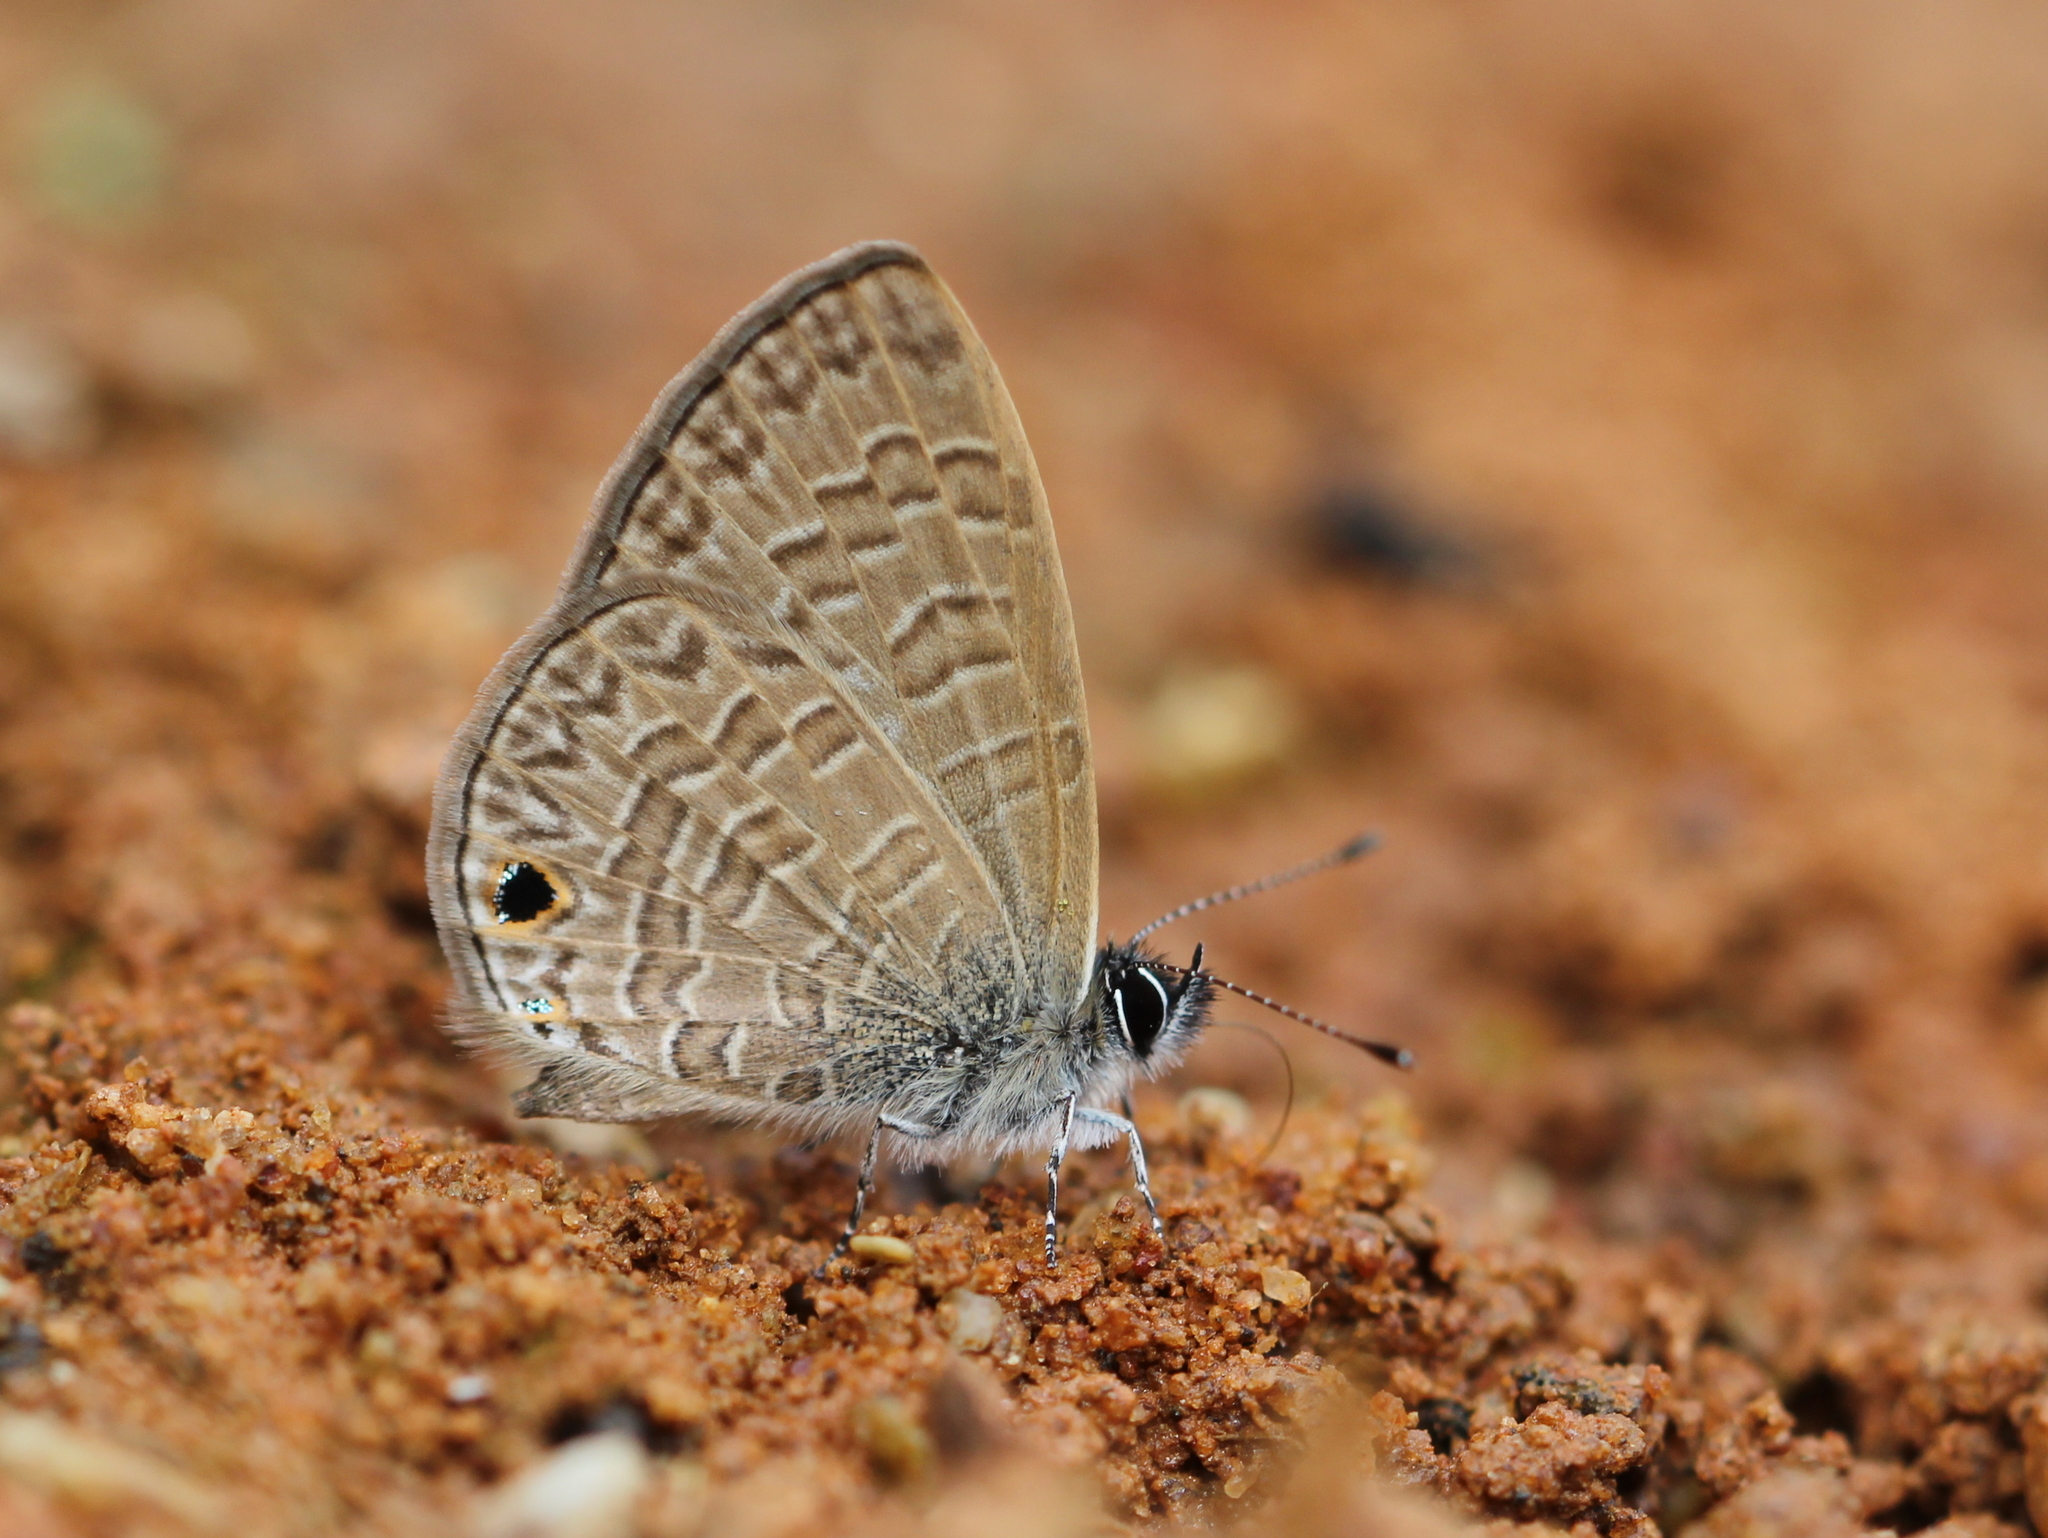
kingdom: Animalia
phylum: Arthropoda
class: Insecta
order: Lepidoptera
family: Lycaenidae
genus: Prosotas
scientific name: Prosotas dubiosa
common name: Tailless lineblue
